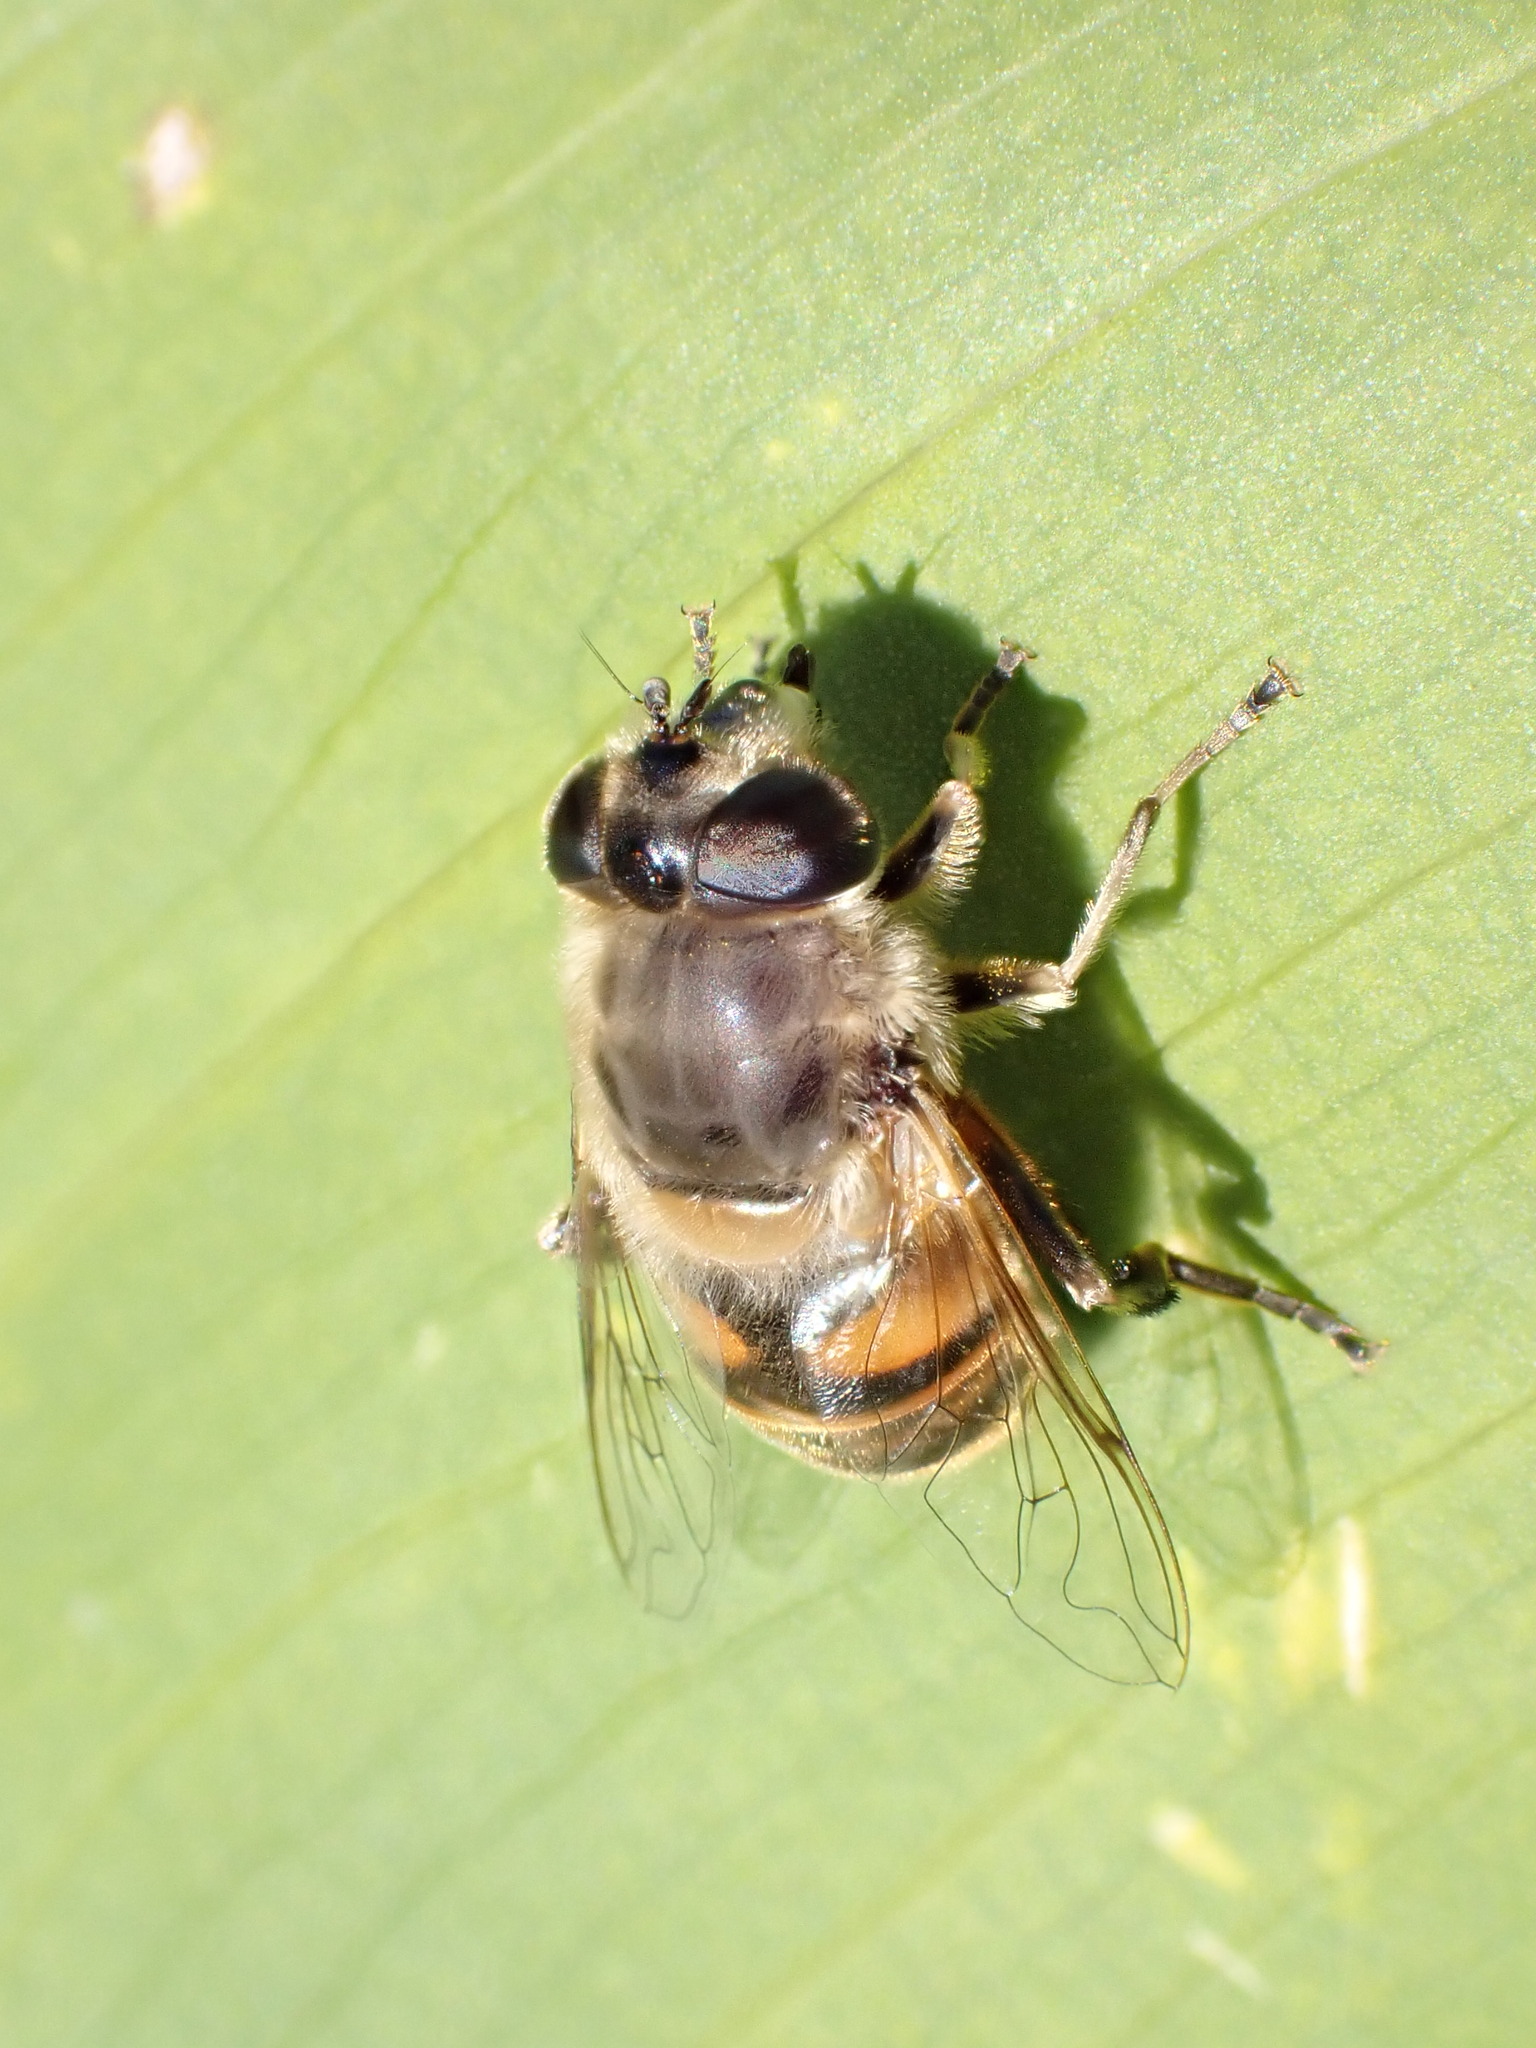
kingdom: Animalia
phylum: Arthropoda
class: Insecta
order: Diptera
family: Syrphidae
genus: Eristalis
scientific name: Eristalis tenax
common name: Drone fly
